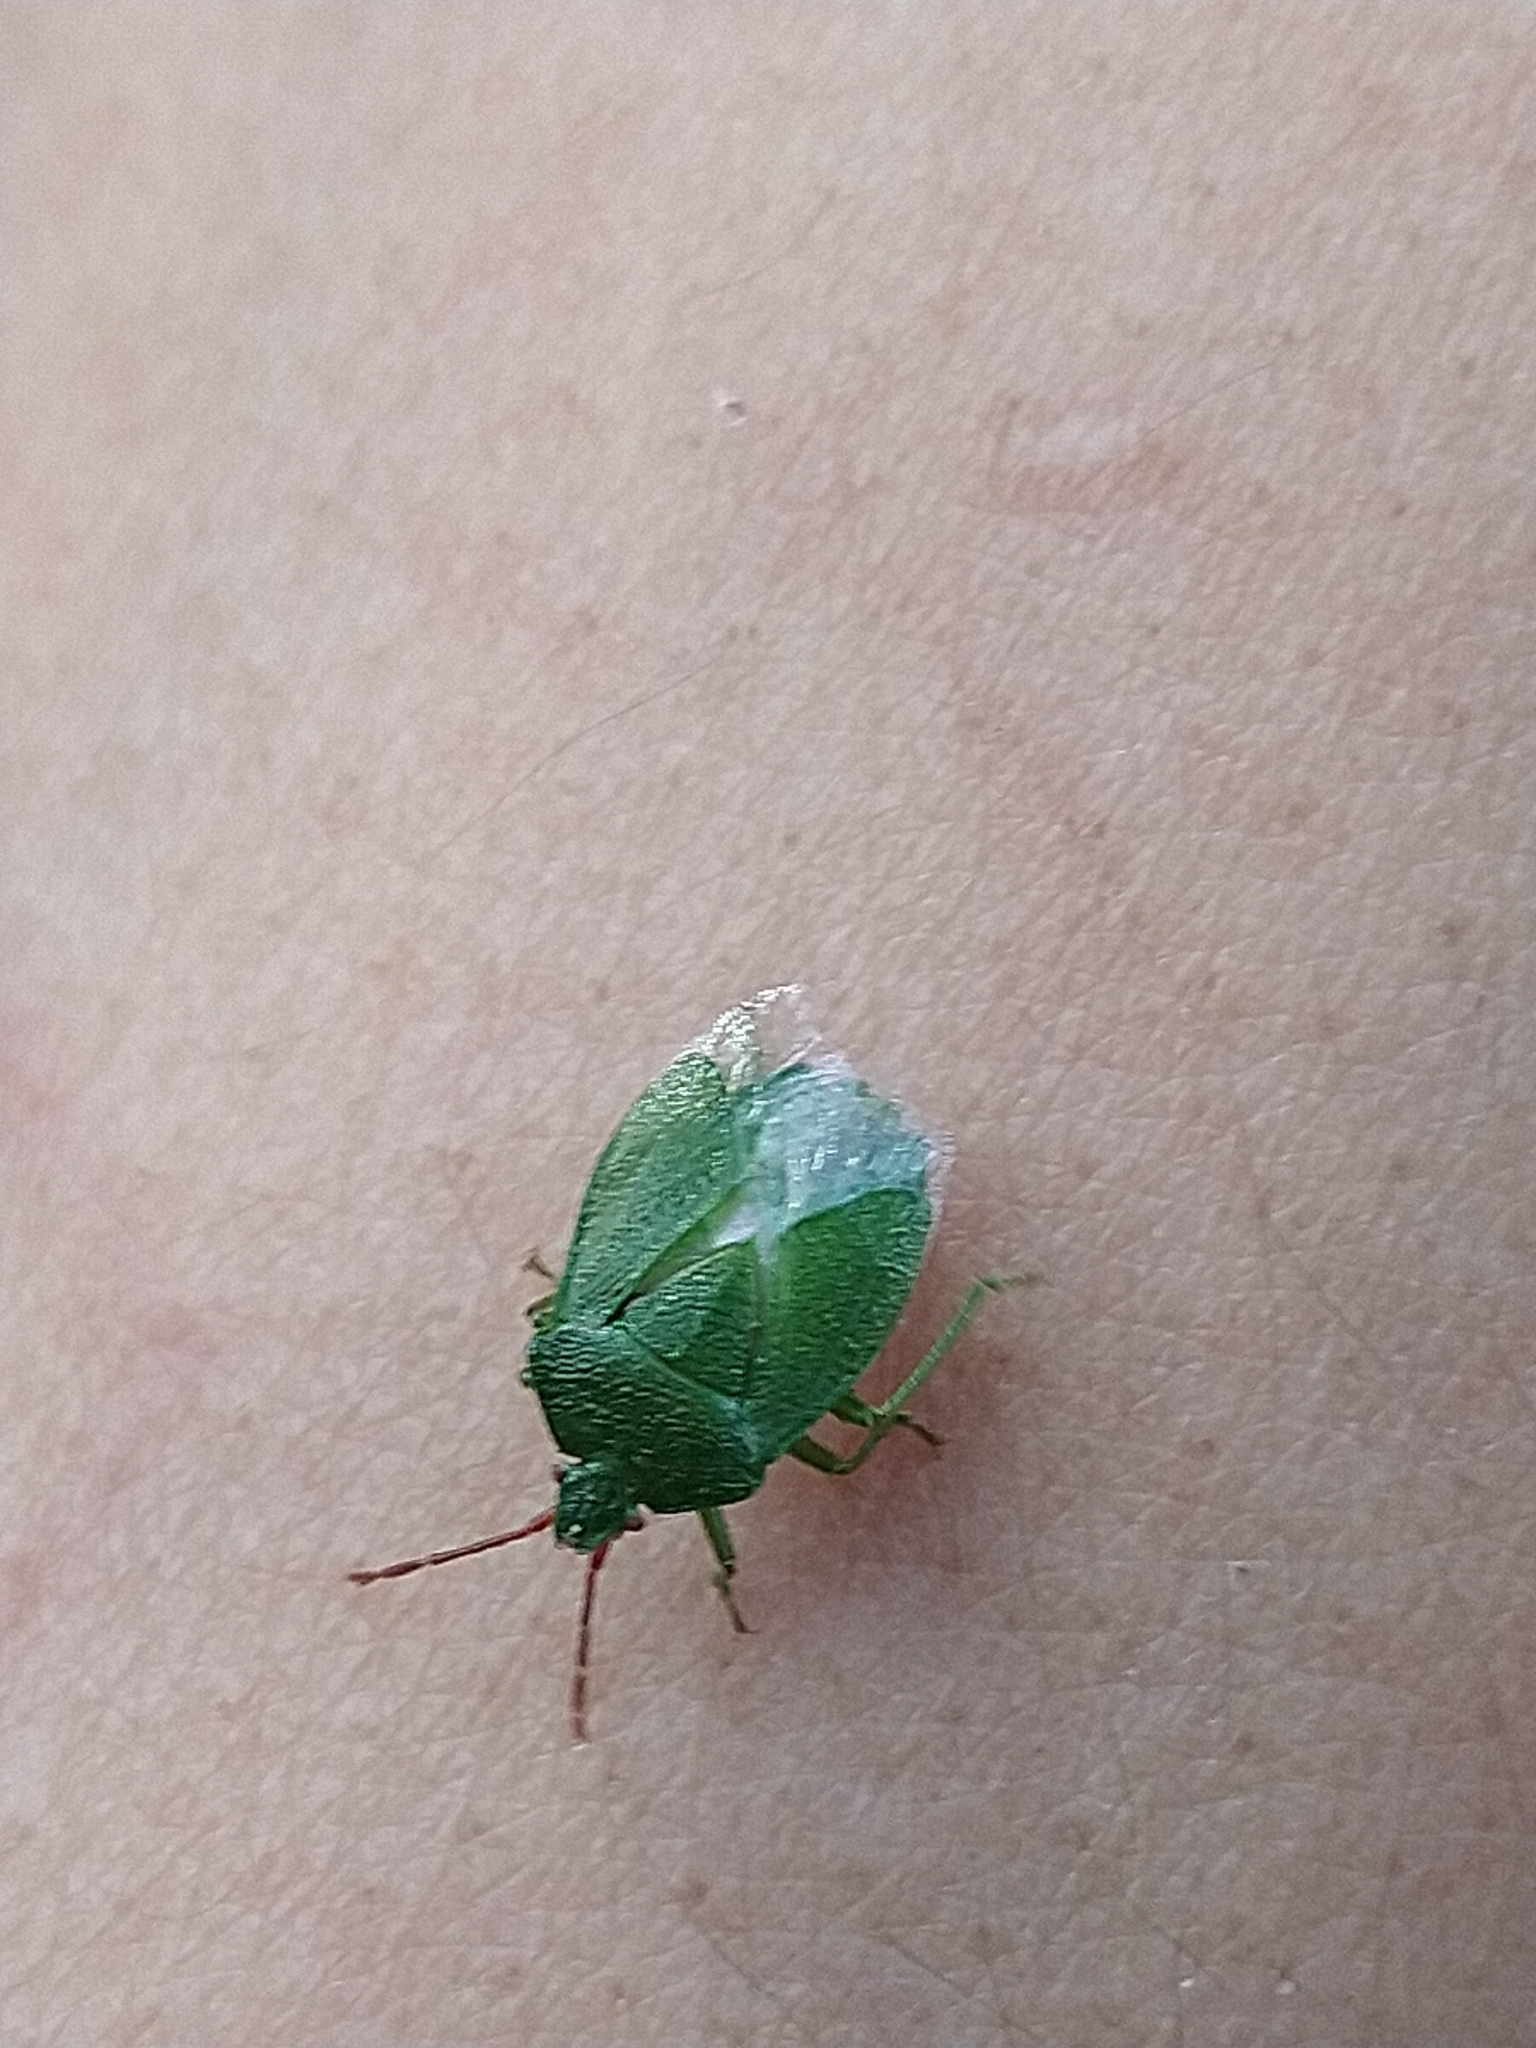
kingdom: Animalia
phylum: Arthropoda
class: Insecta
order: Hemiptera
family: Acanthosomatidae
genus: Sinopla
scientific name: Sinopla perpunctatus
